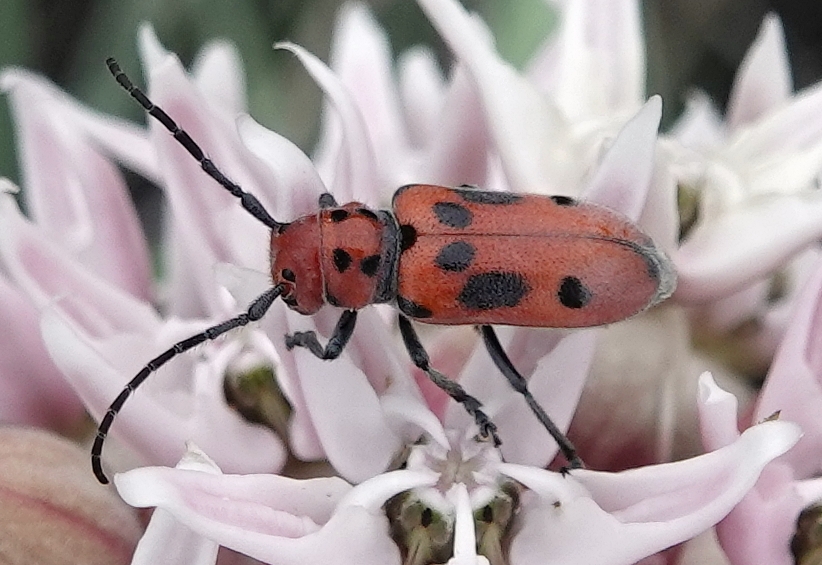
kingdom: Animalia
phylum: Arthropoda
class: Insecta
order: Coleoptera
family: Cerambycidae
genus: Tetraopes
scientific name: Tetraopes tetrophthalmus
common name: Red milkweed beetle
